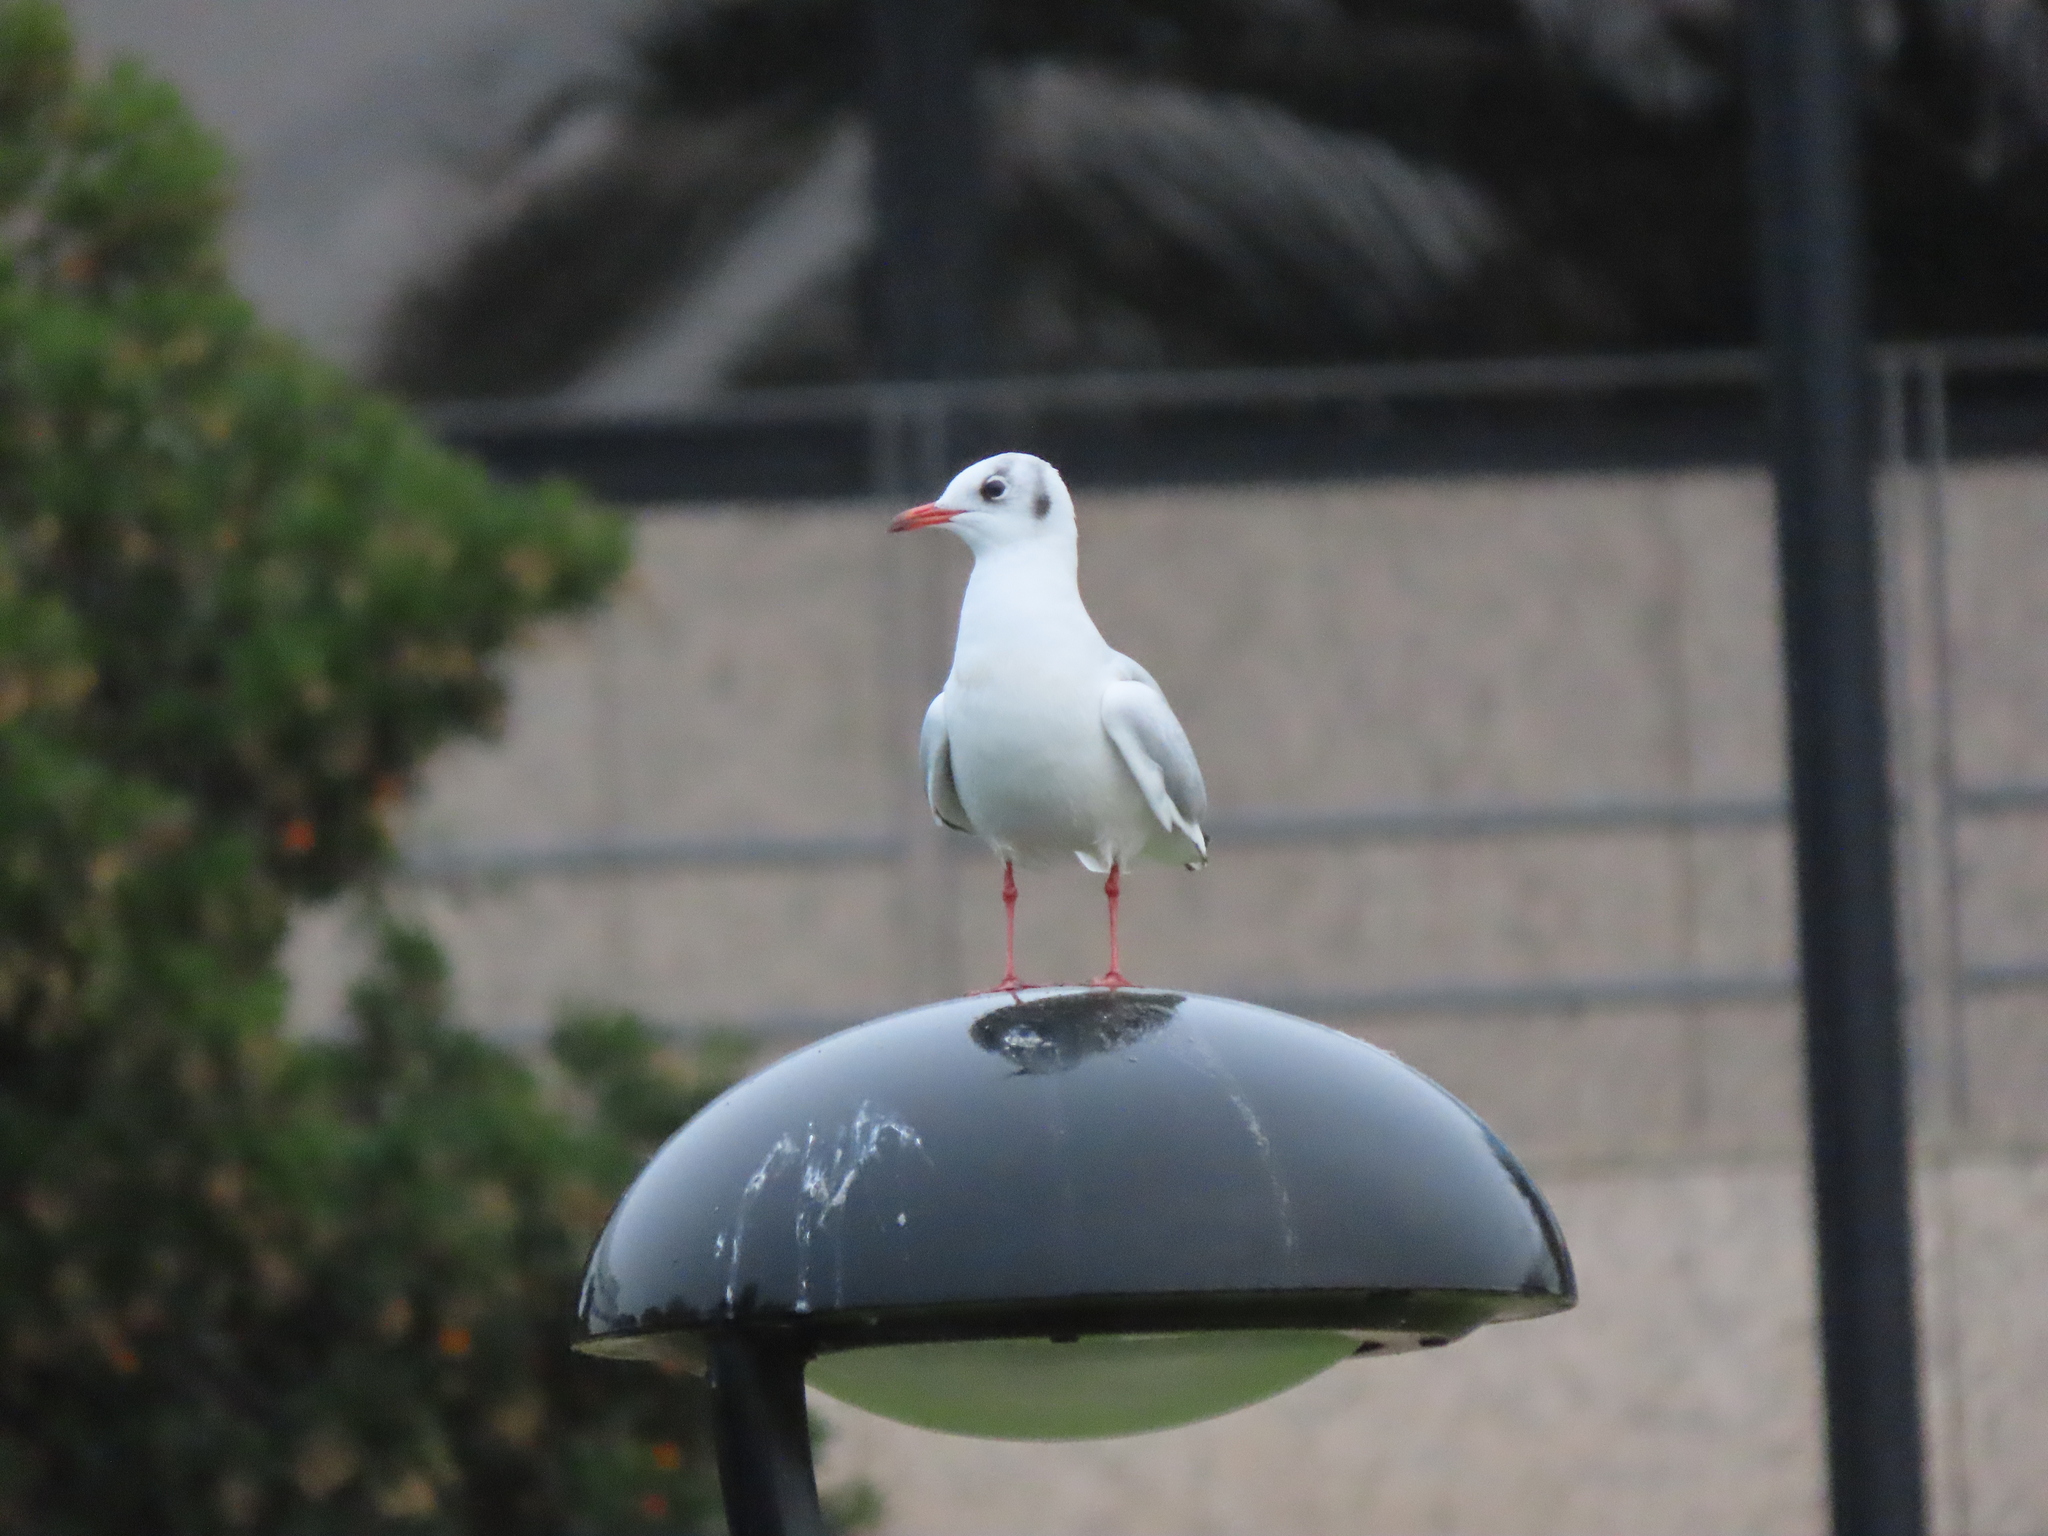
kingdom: Animalia
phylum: Chordata
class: Aves
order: Charadriiformes
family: Laridae
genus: Chroicocephalus
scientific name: Chroicocephalus ridibundus
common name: Black-headed gull
